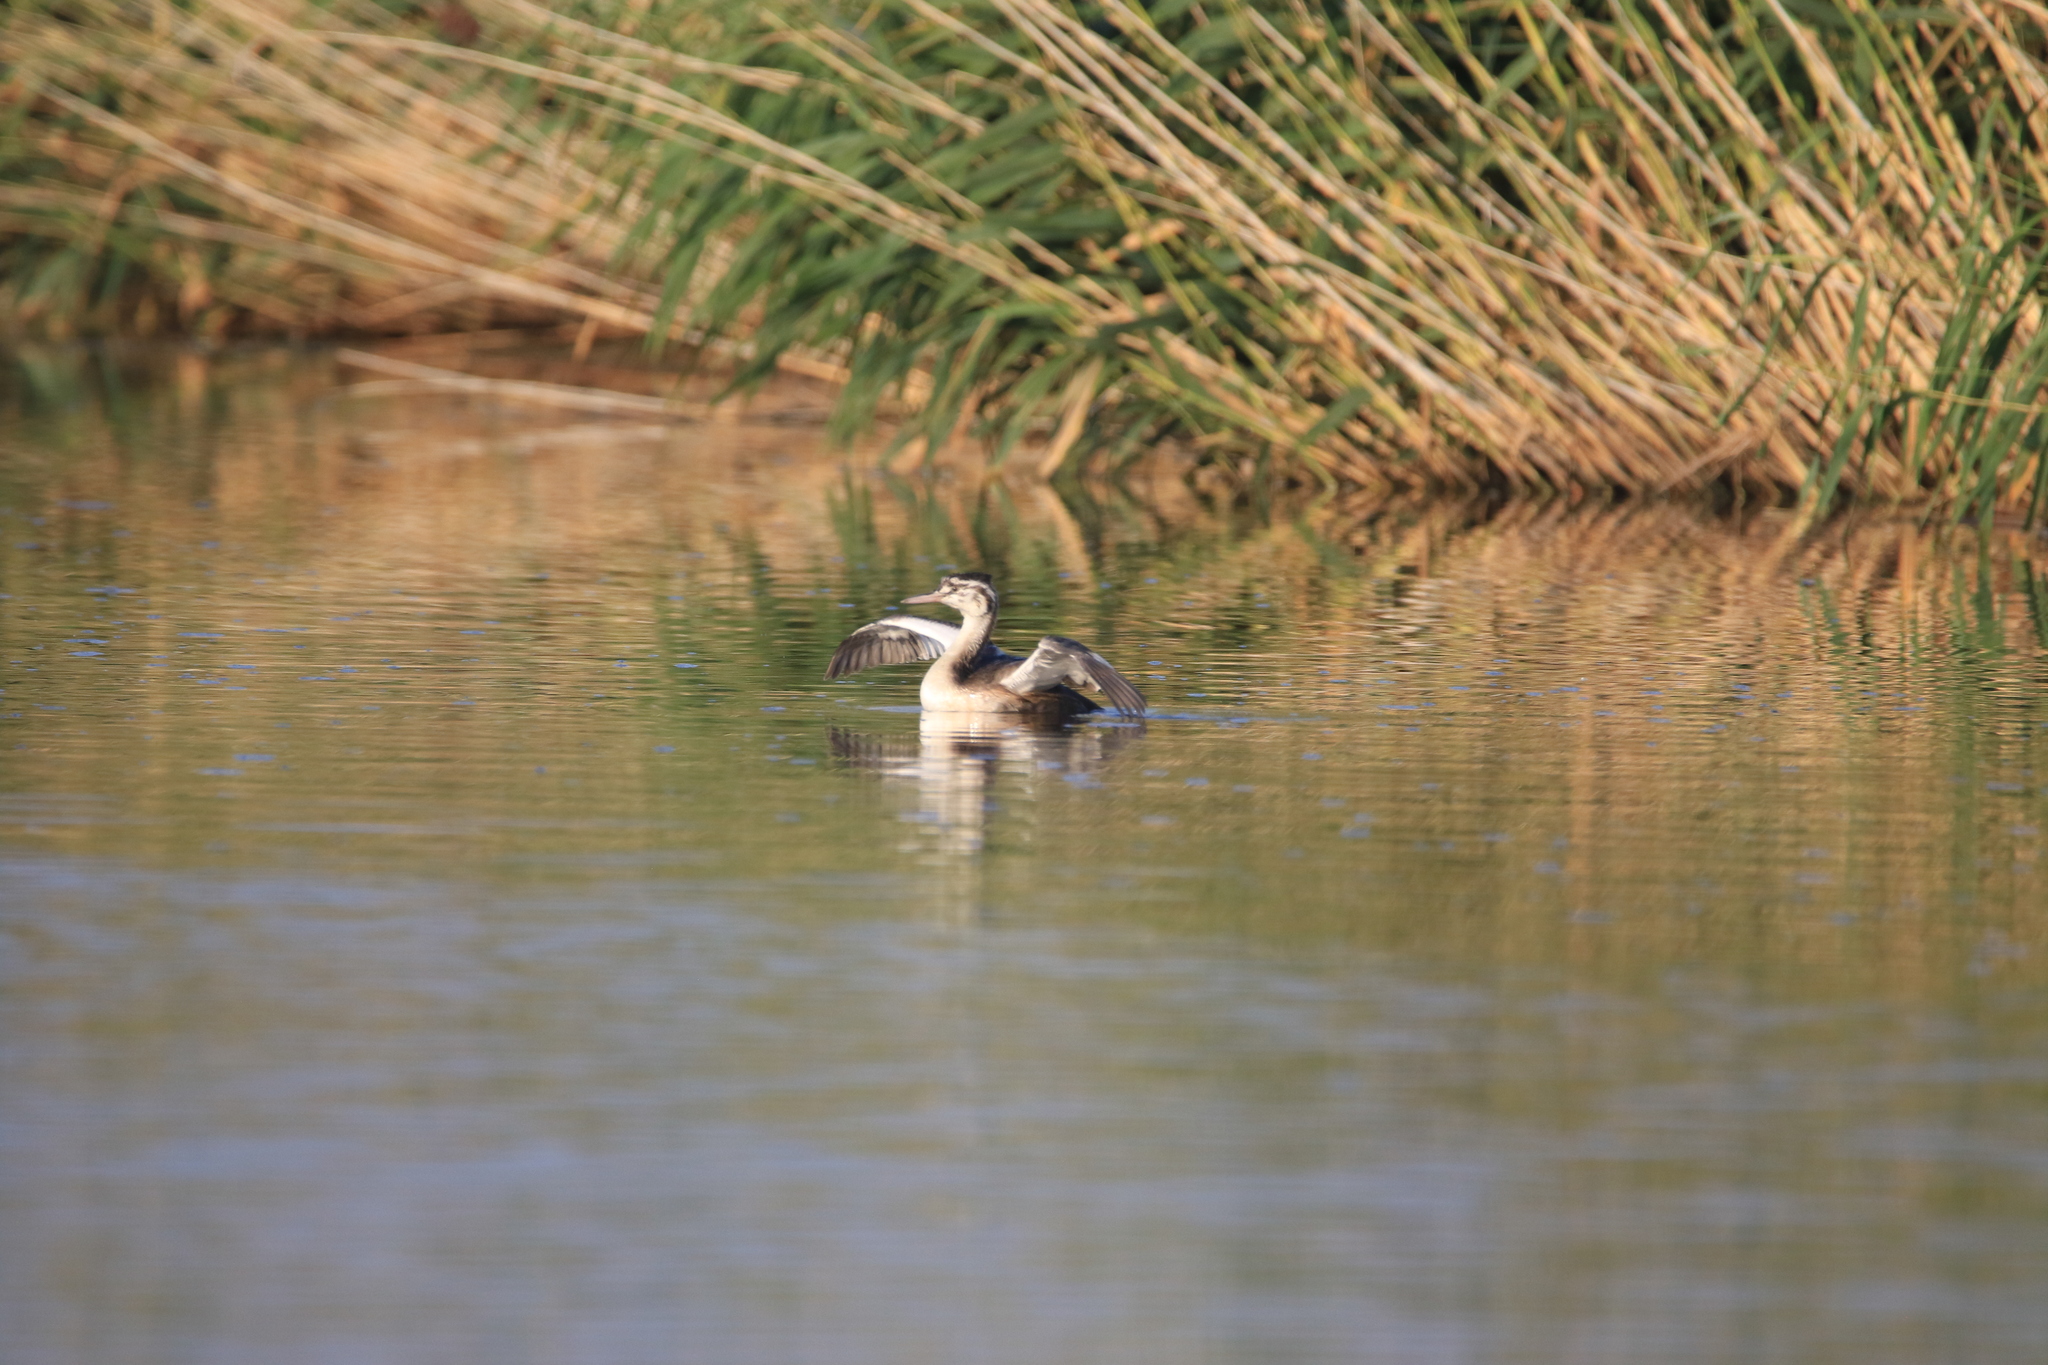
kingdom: Animalia
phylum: Chordata
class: Aves
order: Podicipediformes
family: Podicipedidae
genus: Podiceps
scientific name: Podiceps cristatus
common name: Great crested grebe
